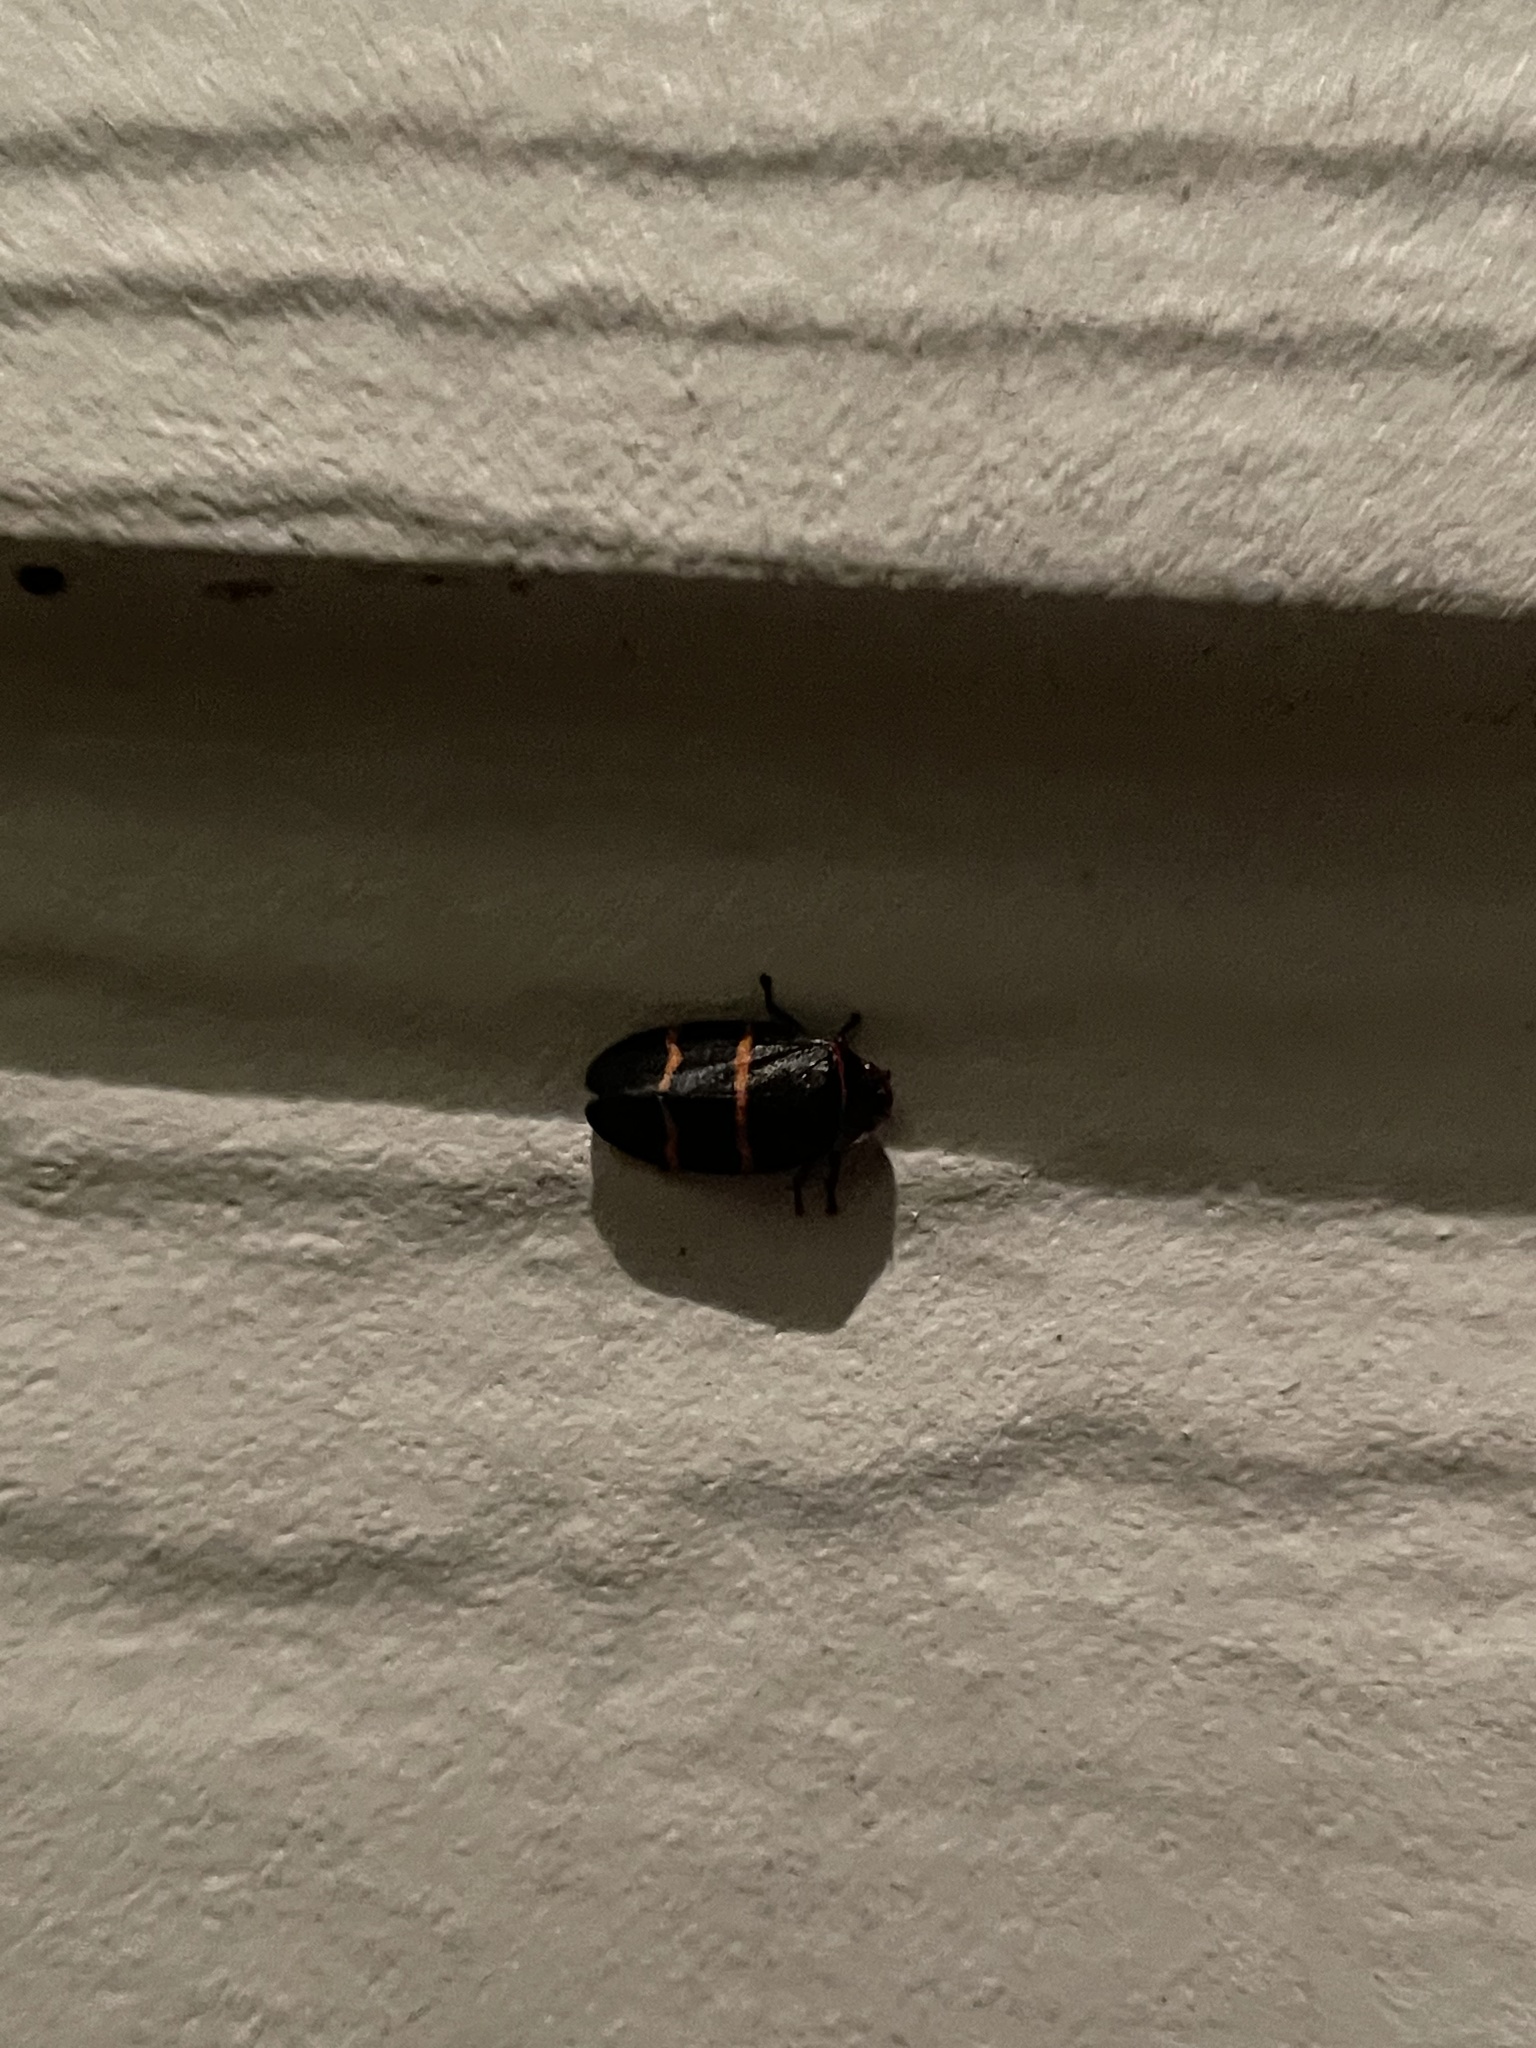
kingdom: Animalia
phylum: Arthropoda
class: Insecta
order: Hemiptera
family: Cercopidae
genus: Prosapia
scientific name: Prosapia bicincta
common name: Twolined spittlebug
